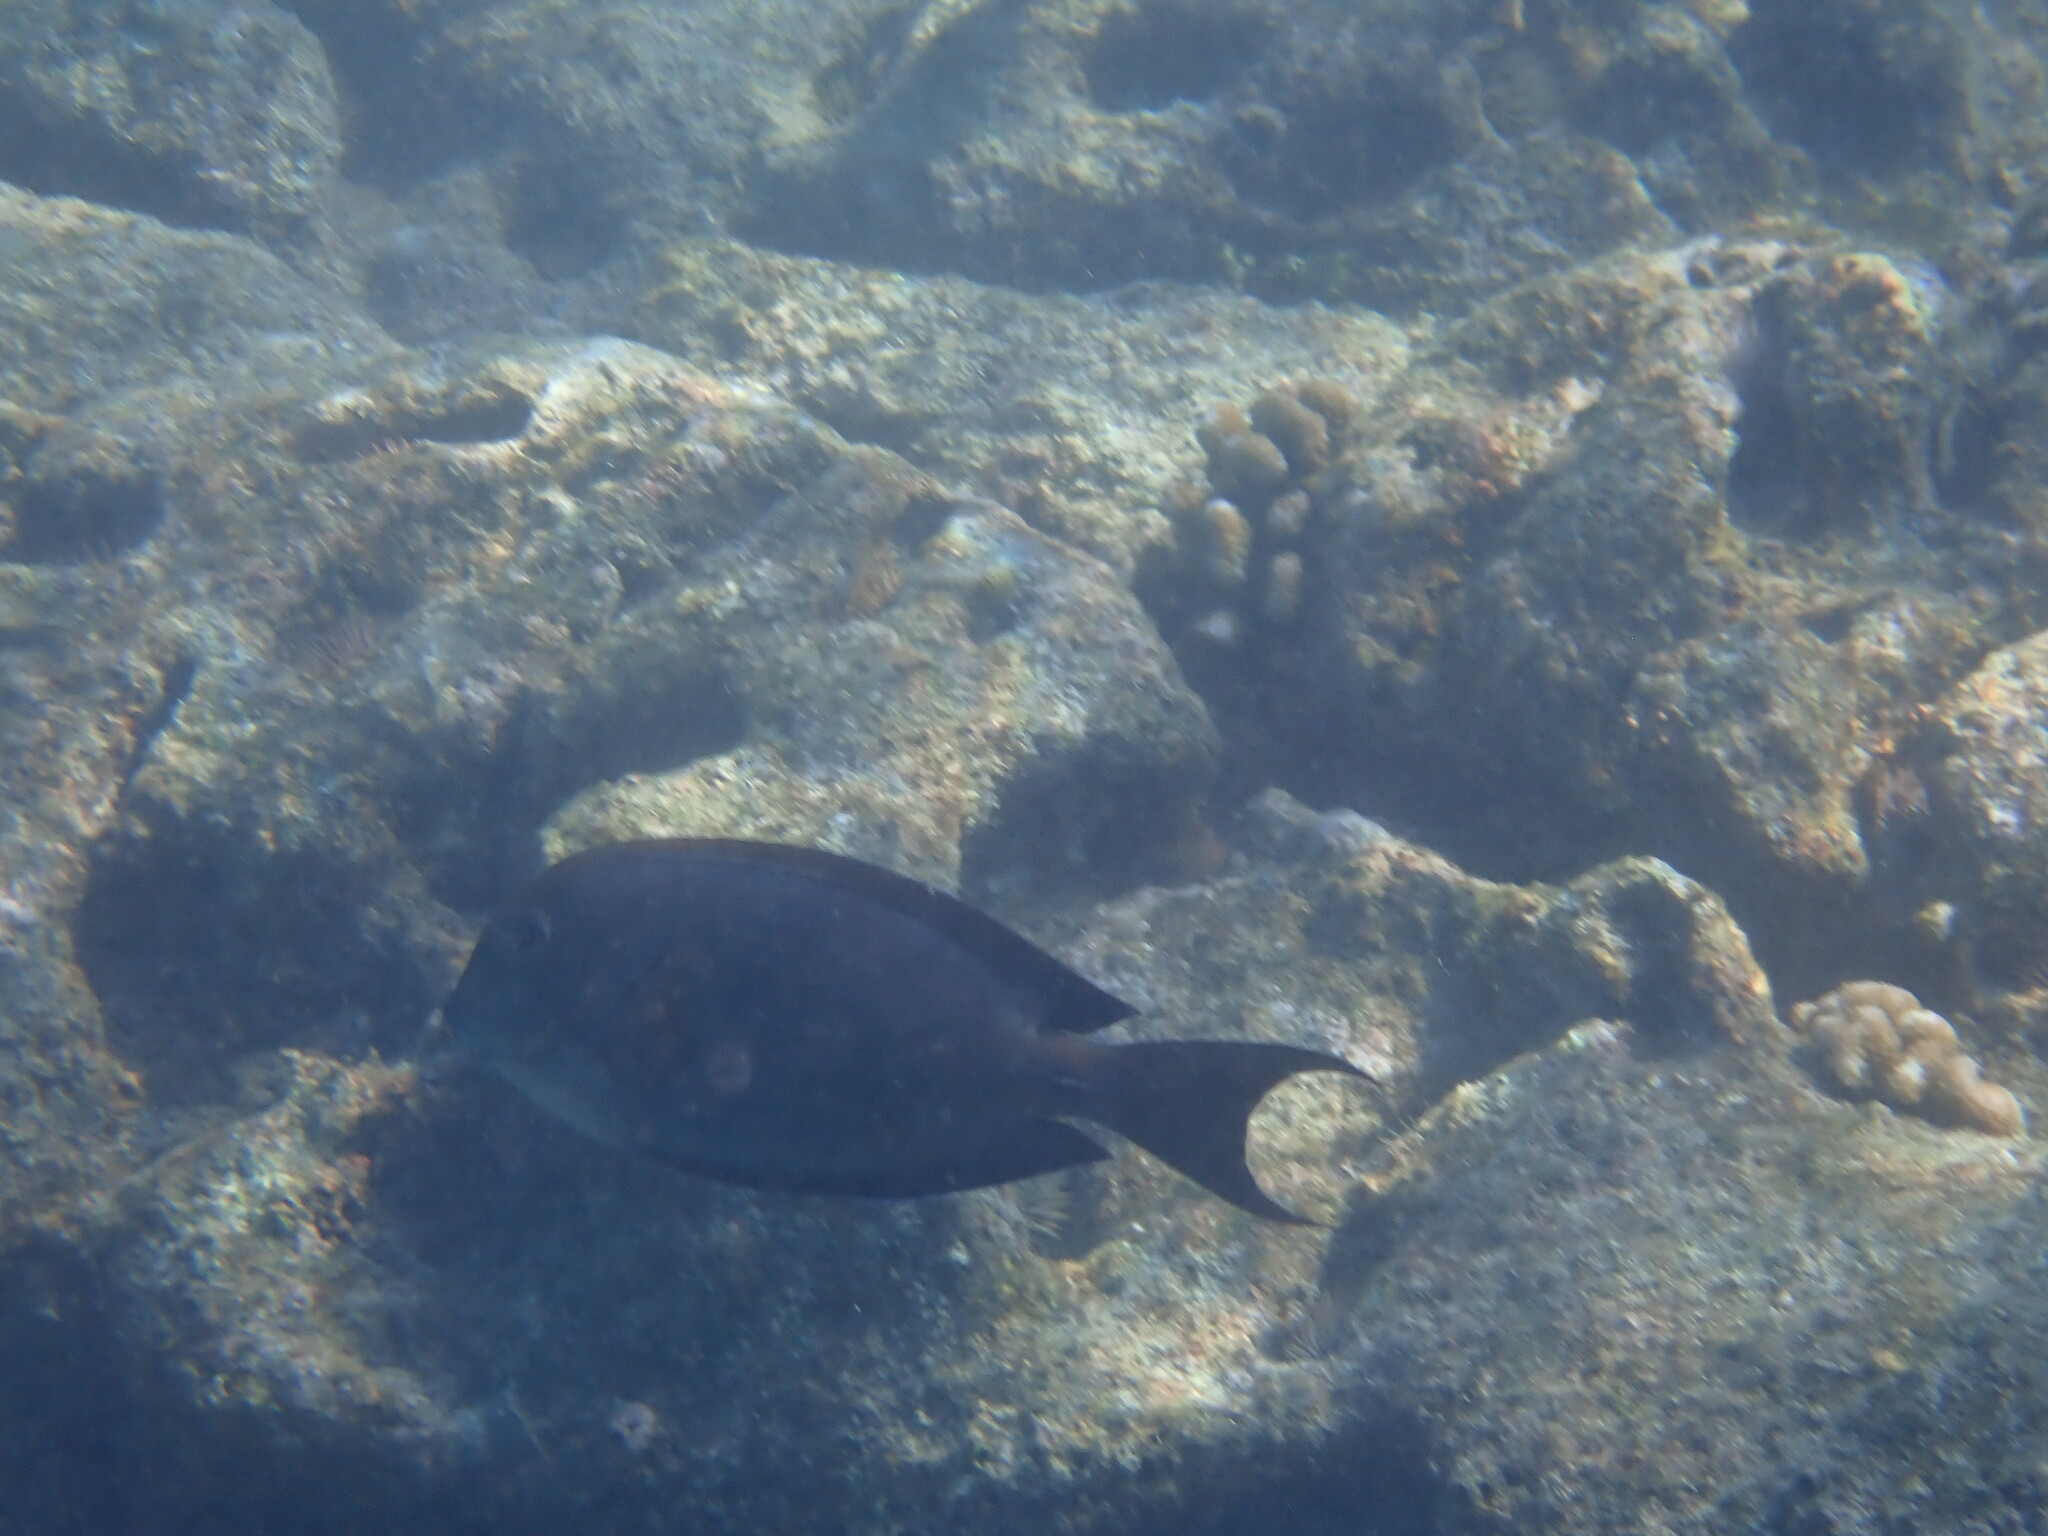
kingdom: Animalia
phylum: Chordata
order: Perciformes
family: Acanthuridae
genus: Acanthurus
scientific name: Acanthurus nigrofuscus
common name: Blackspot surgeonfish
